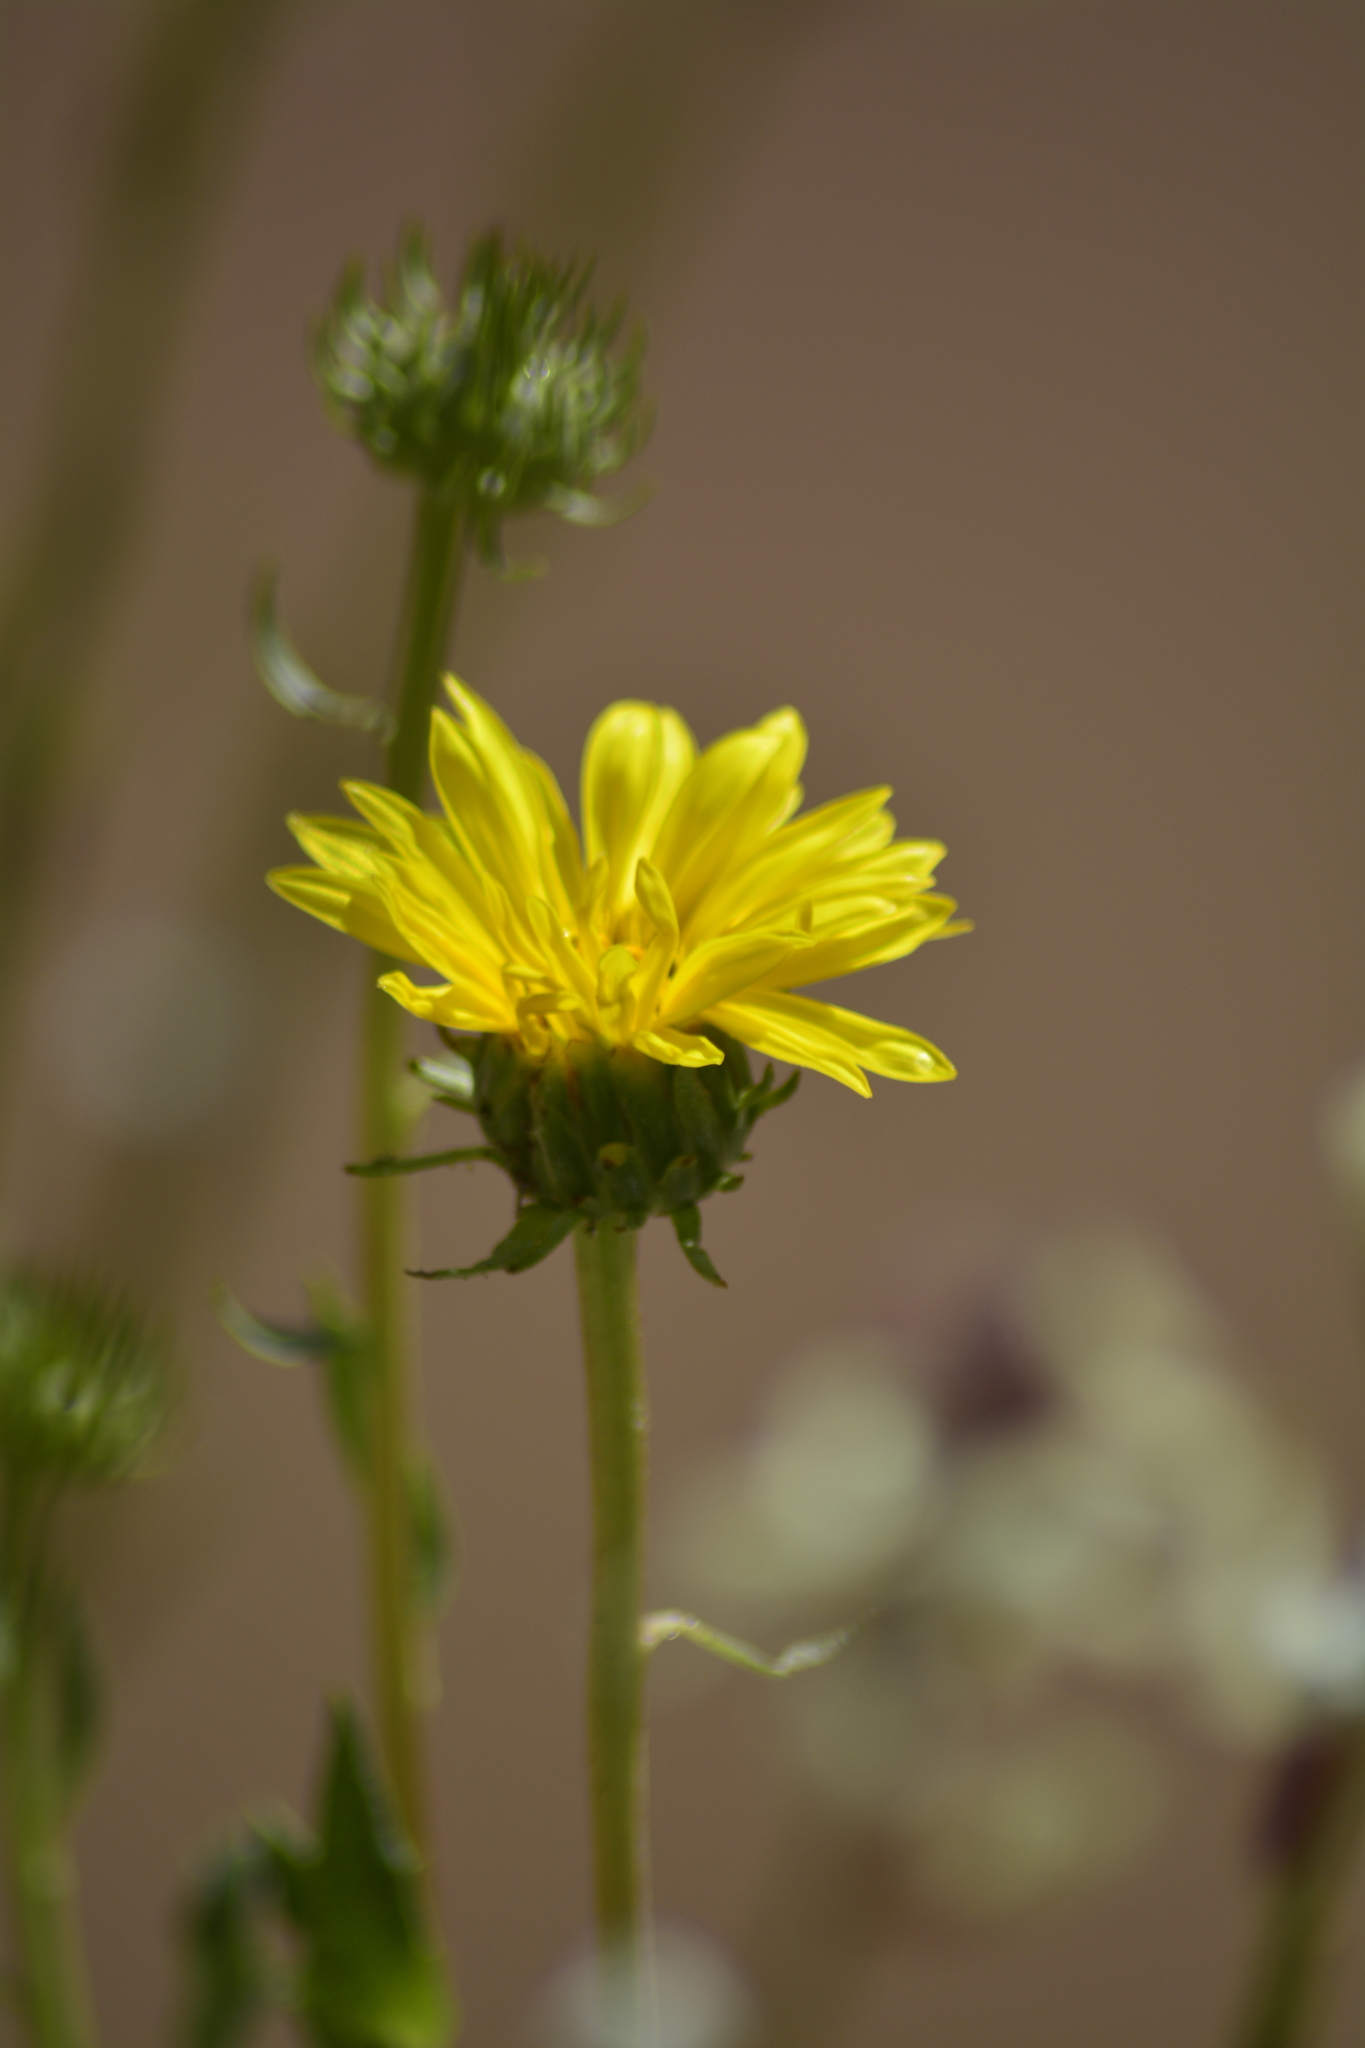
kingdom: Plantae
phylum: Tracheophyta
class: Magnoliopsida
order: Asterales
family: Asteraceae
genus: Grindelia
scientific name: Grindelia chiloensis
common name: Shrubby gumweed
